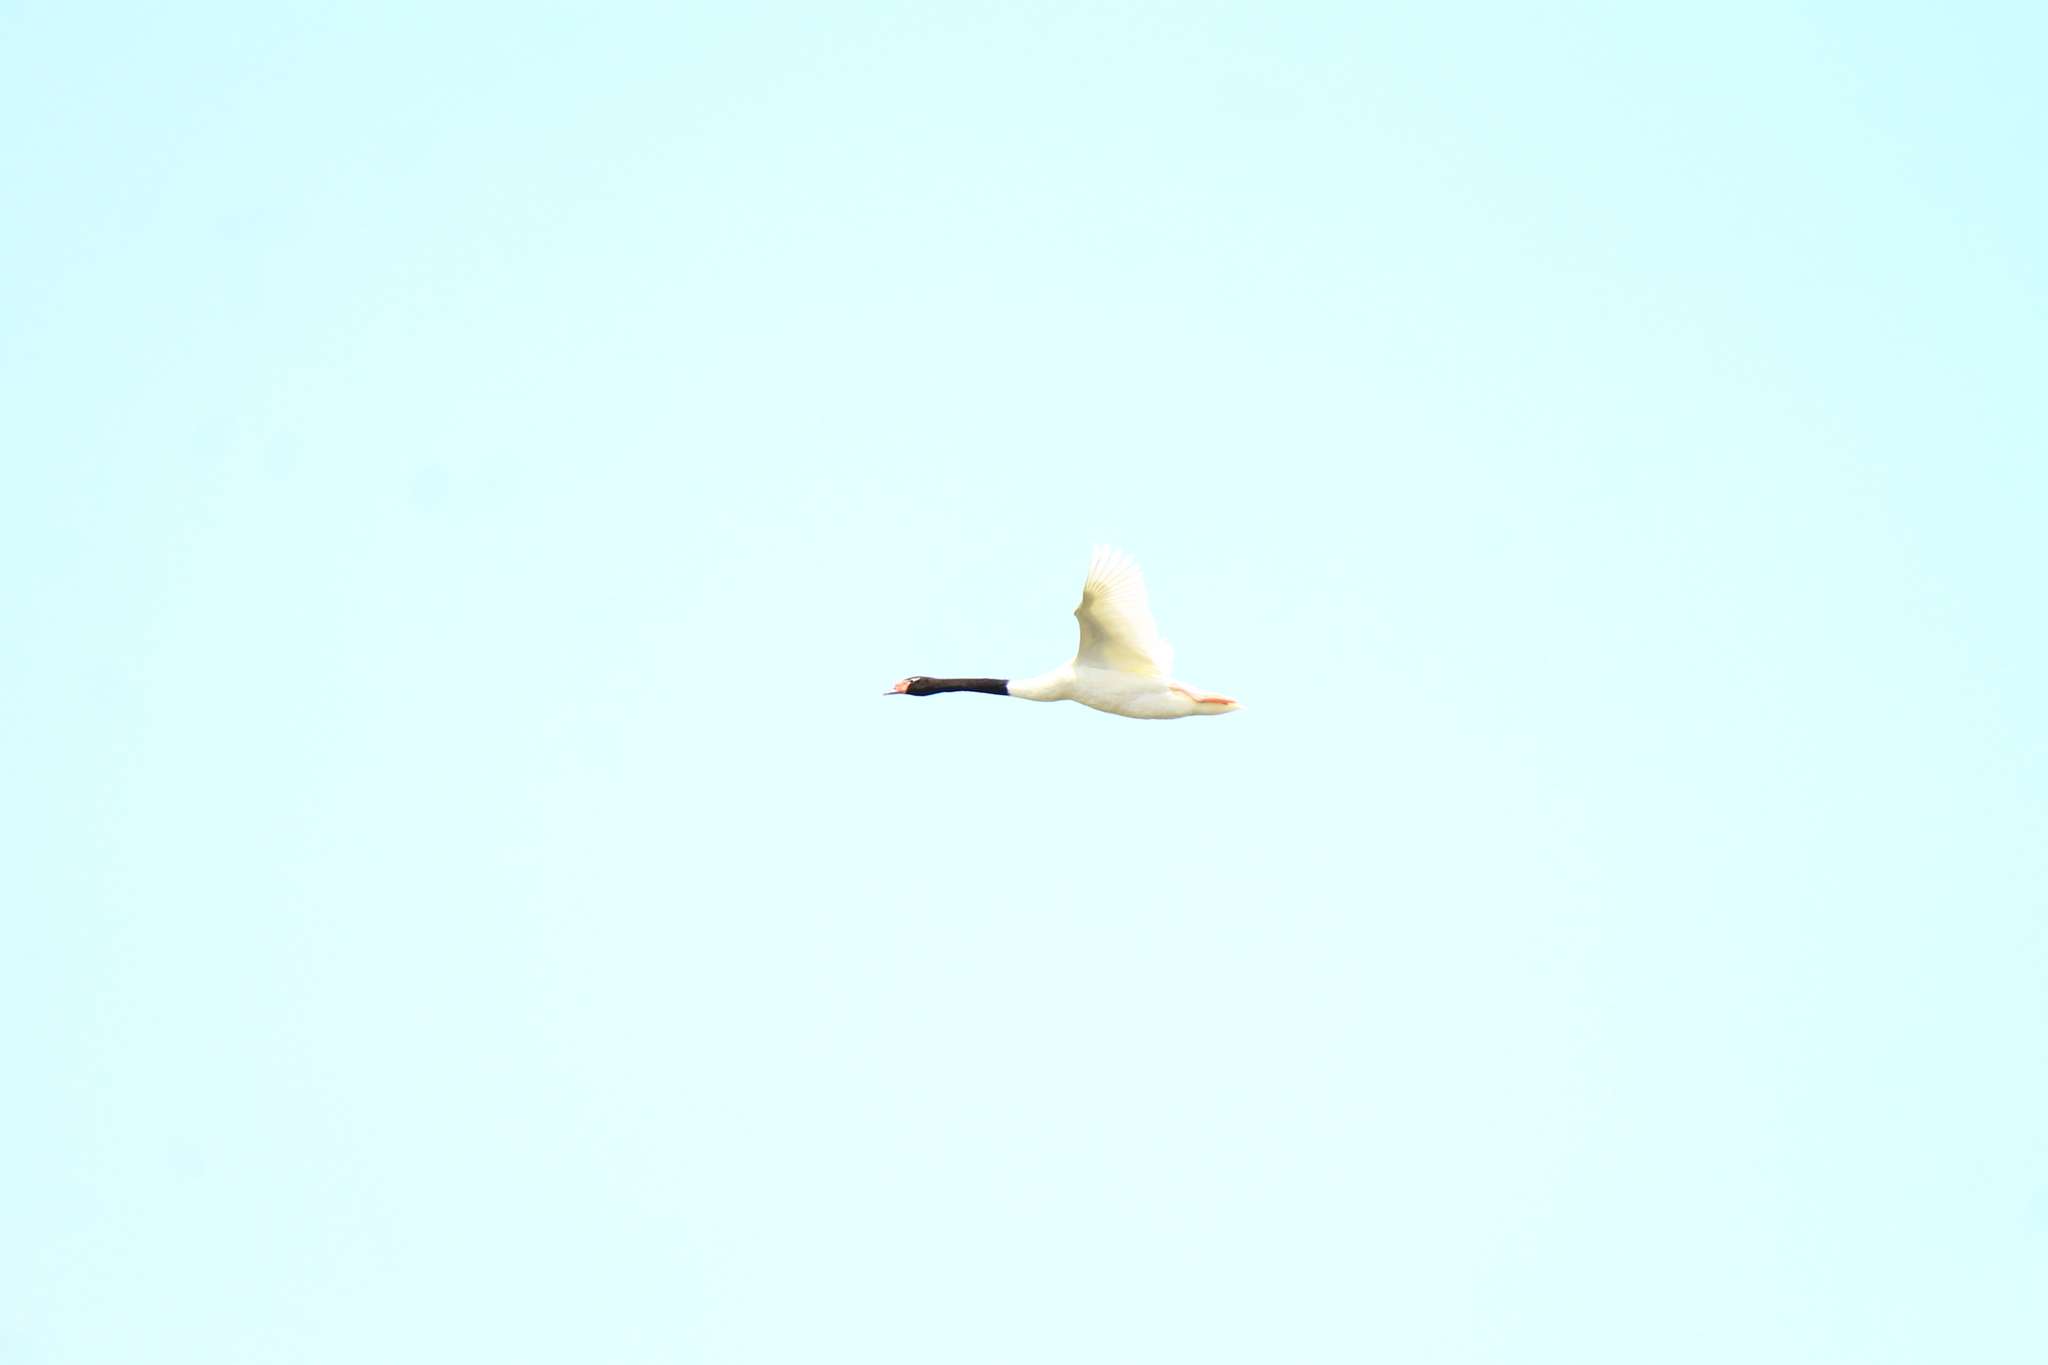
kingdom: Animalia
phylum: Chordata
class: Aves
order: Anseriformes
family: Anatidae
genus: Cygnus
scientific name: Cygnus melancoryphus
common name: Black-necked swan
